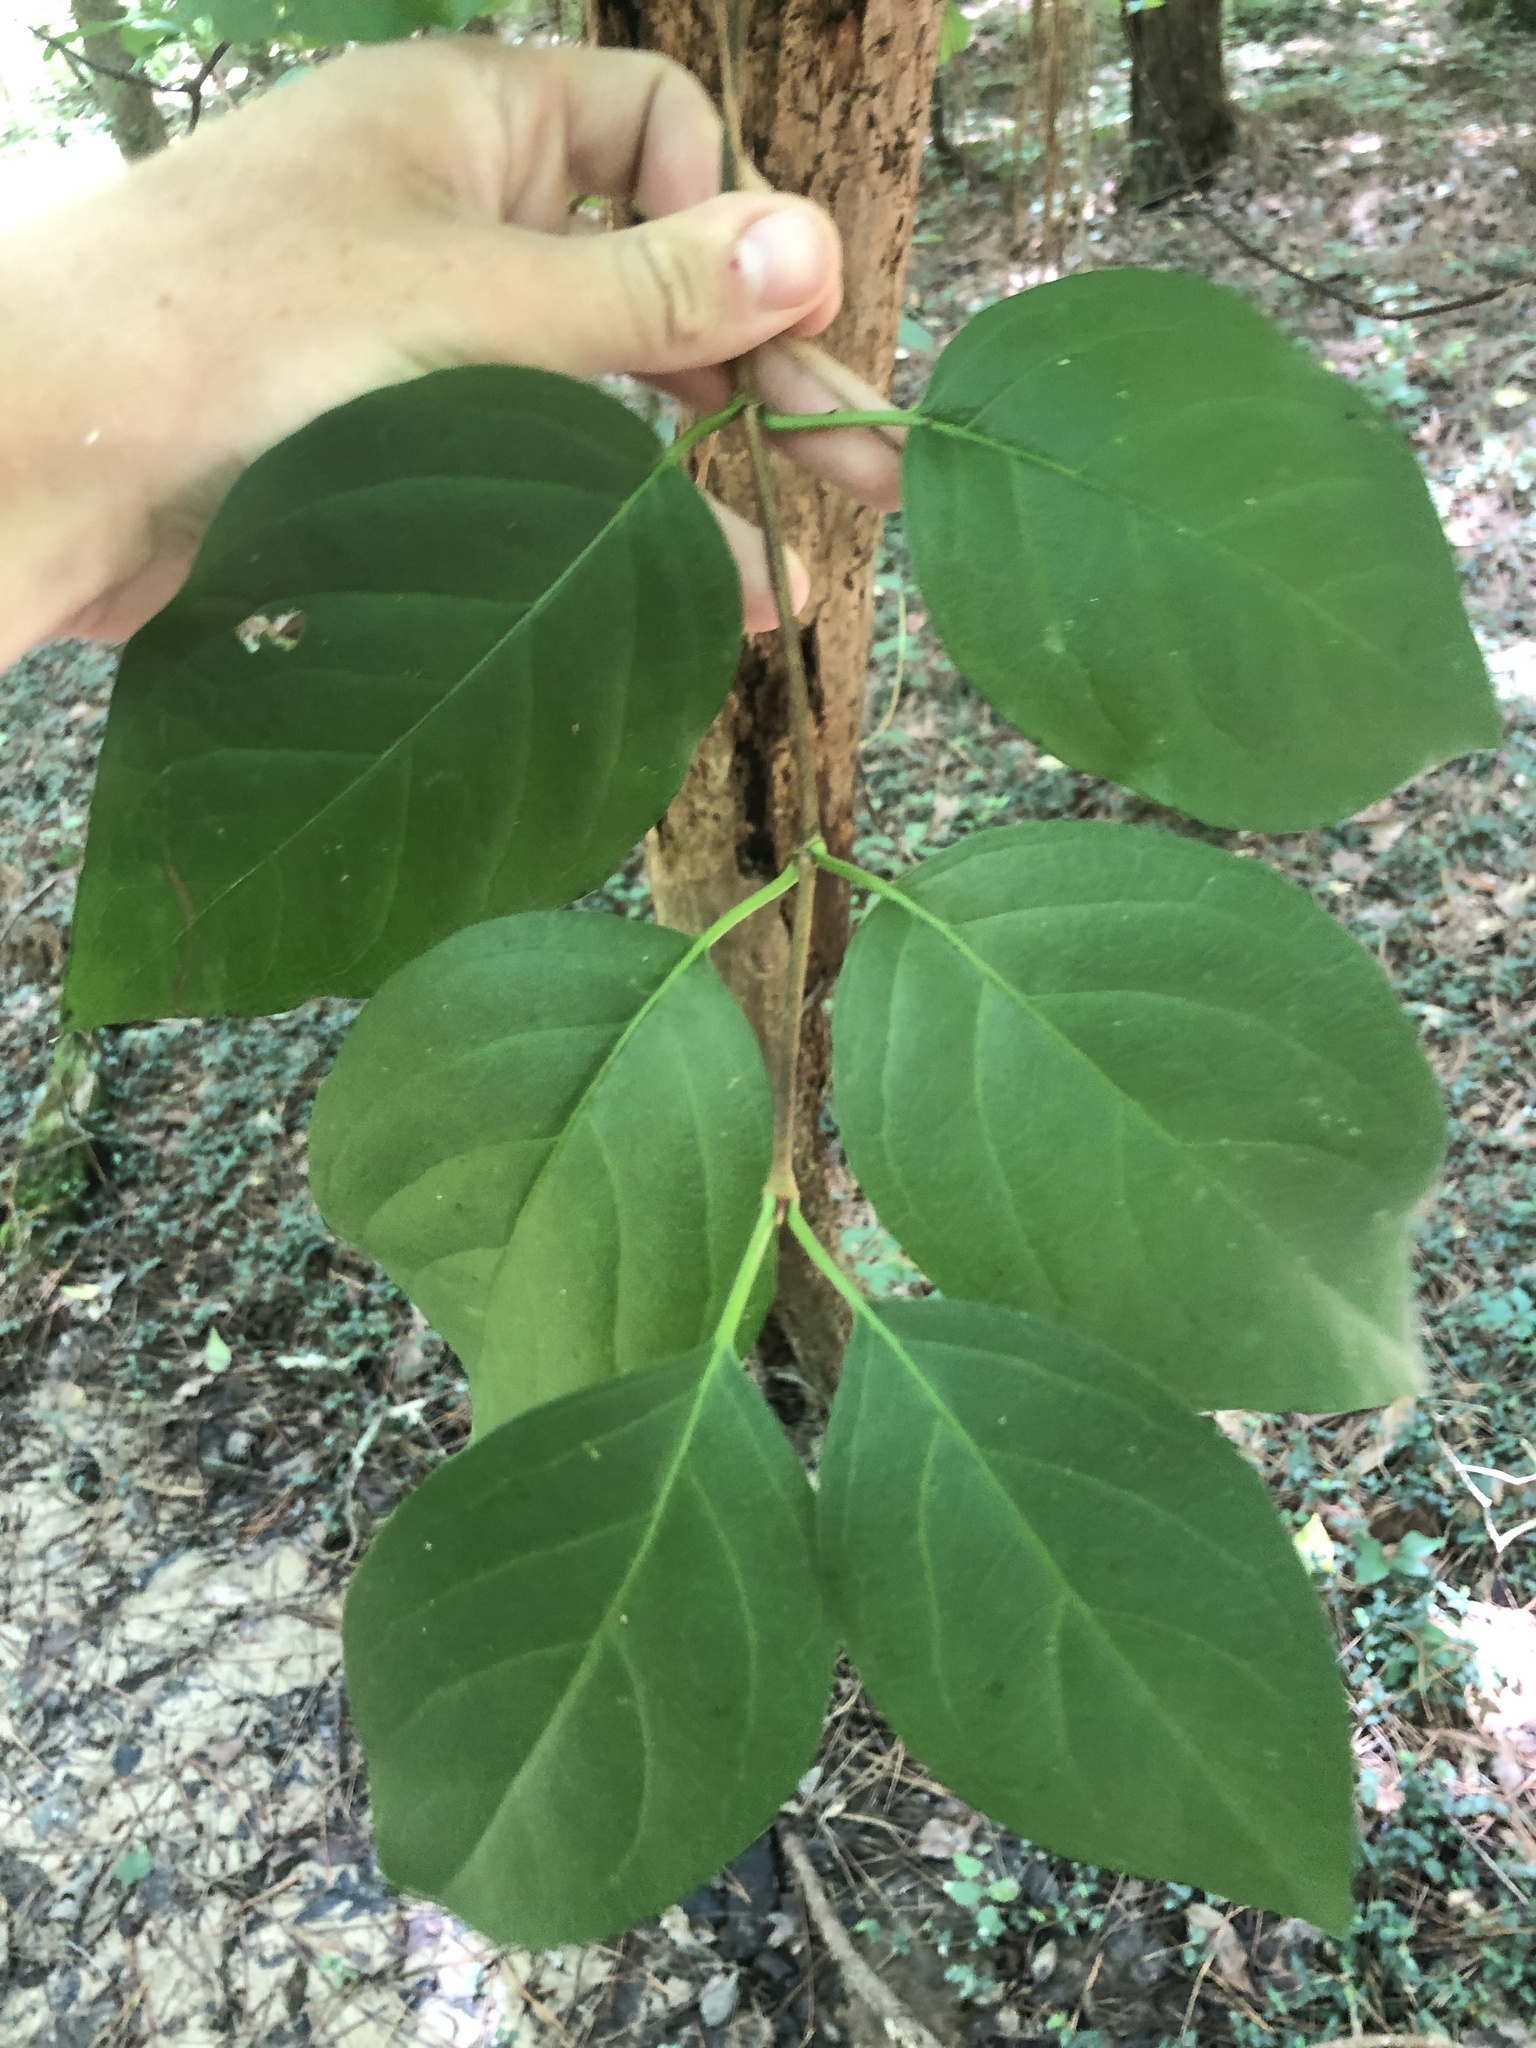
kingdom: Plantae
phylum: Tracheophyta
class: Magnoliopsida
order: Cornales
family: Hydrangeaceae
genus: Hydrangea
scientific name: Hydrangea barbara
